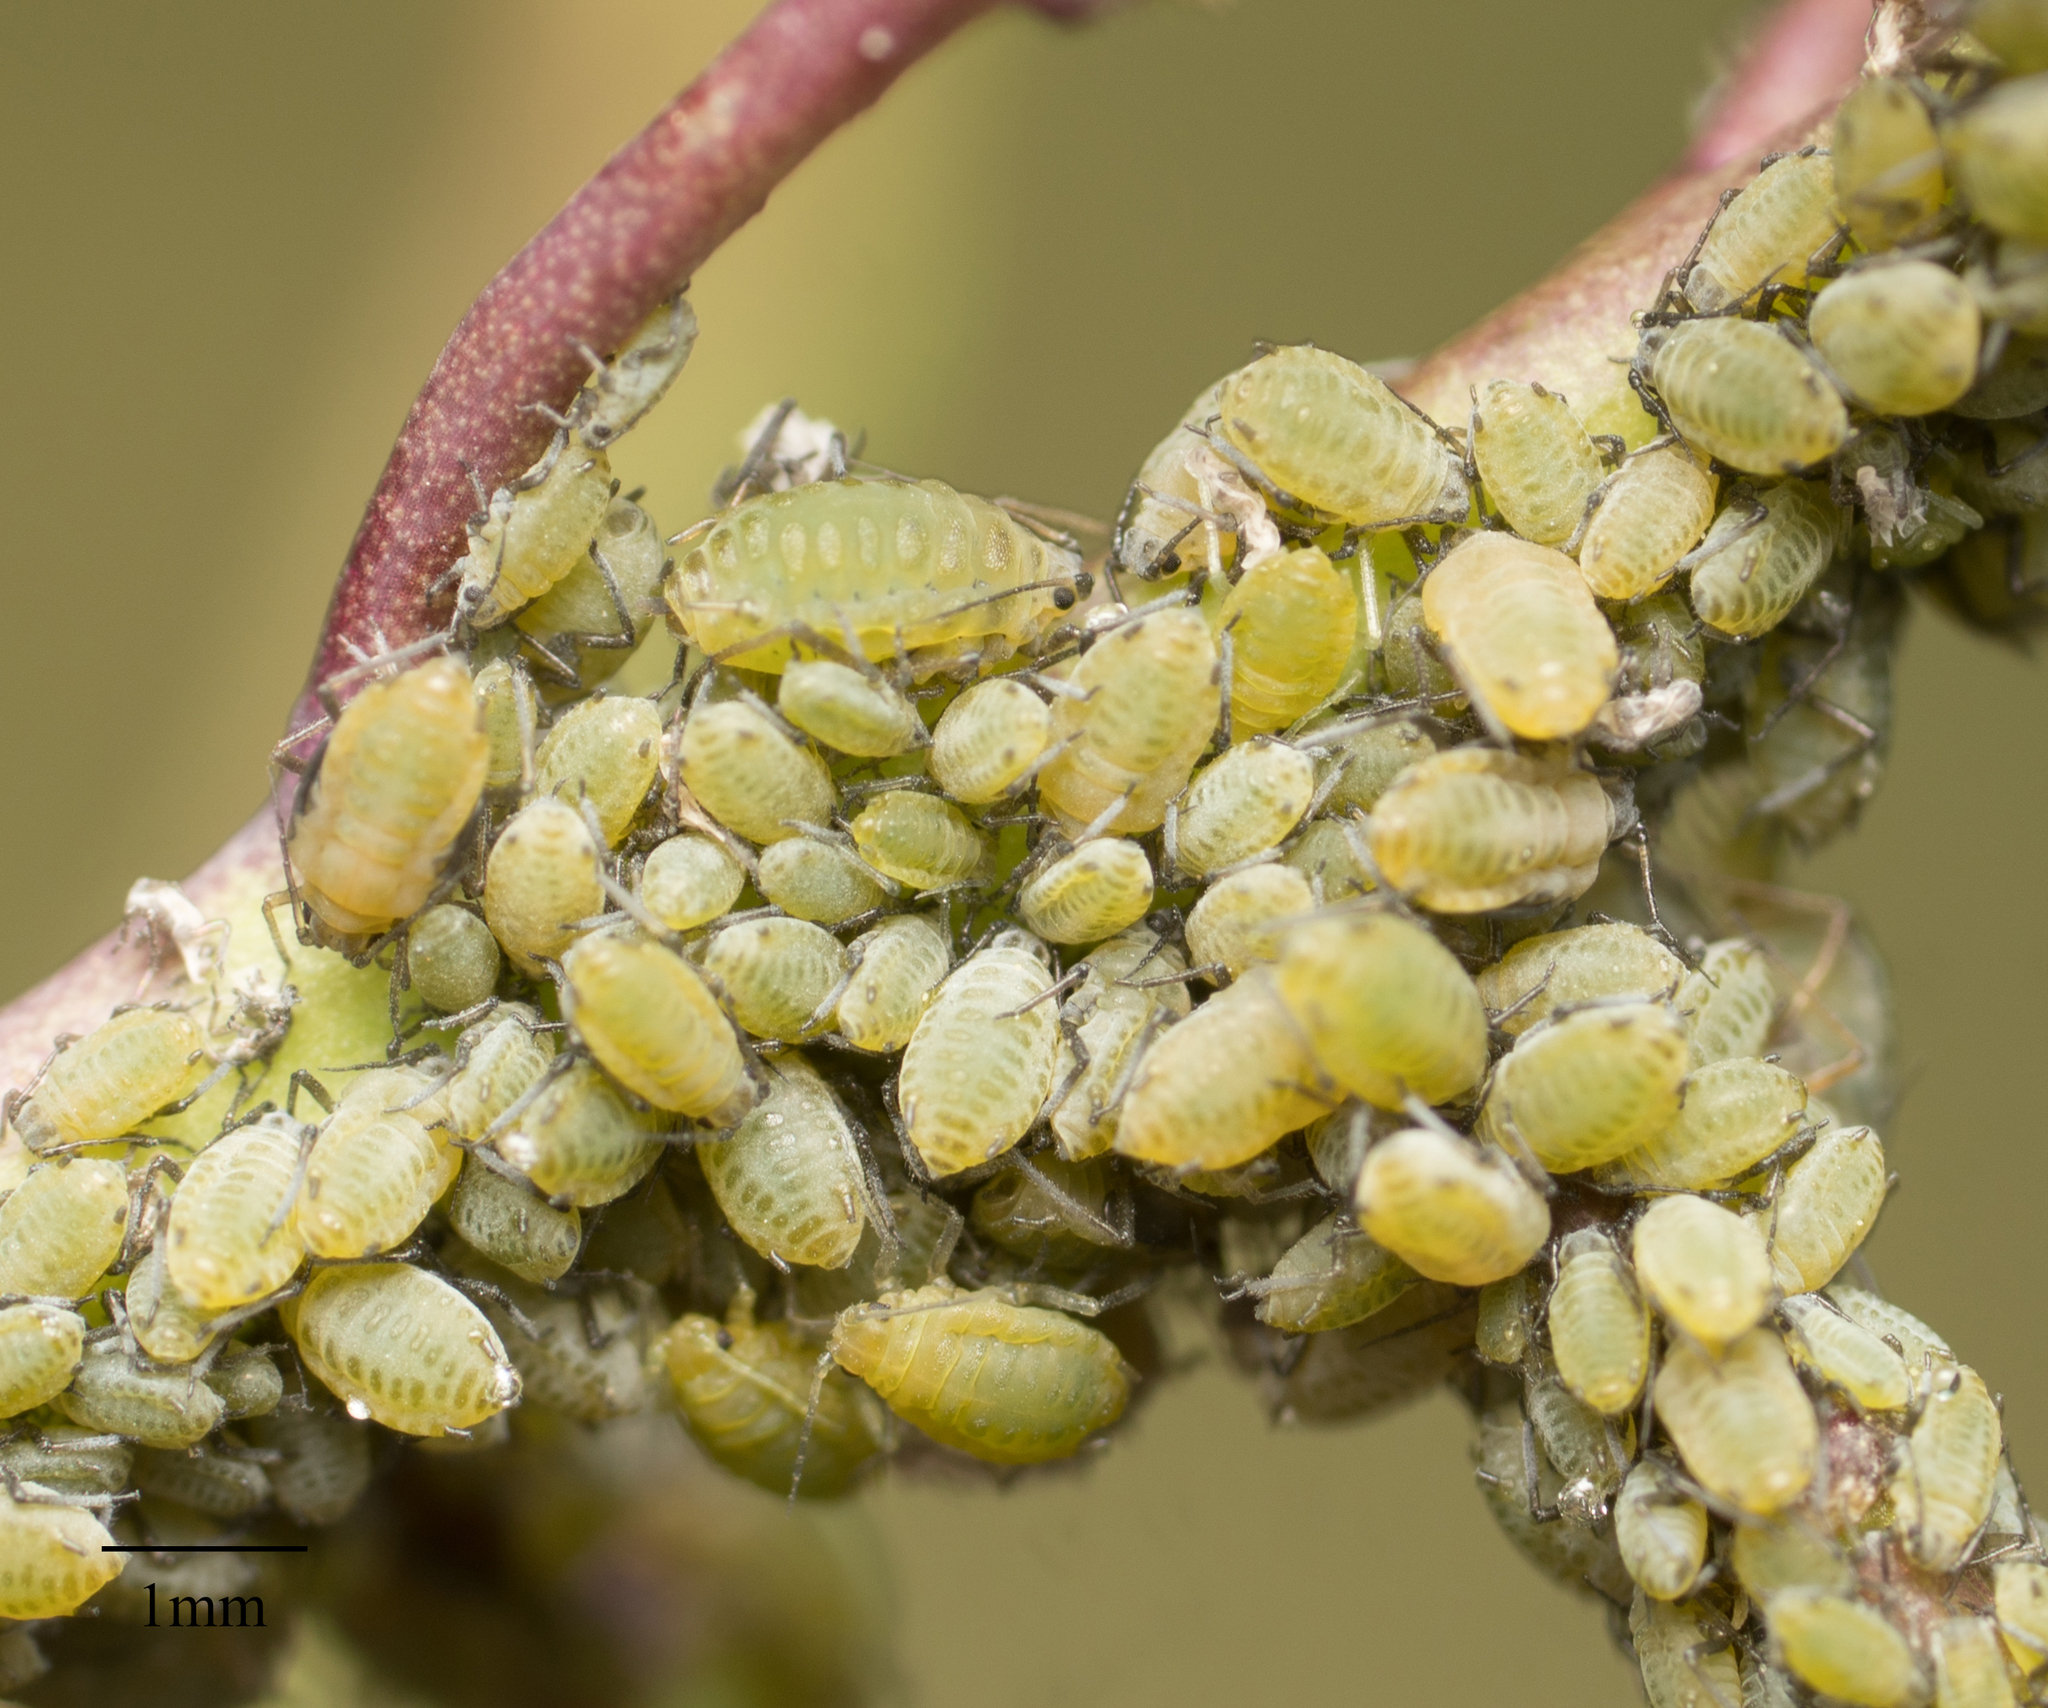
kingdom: Animalia
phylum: Arthropoda
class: Insecta
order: Hemiptera
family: Aphididae
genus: Lipaphis
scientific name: Lipaphis pseudobrassicae
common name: Turnip aphid
